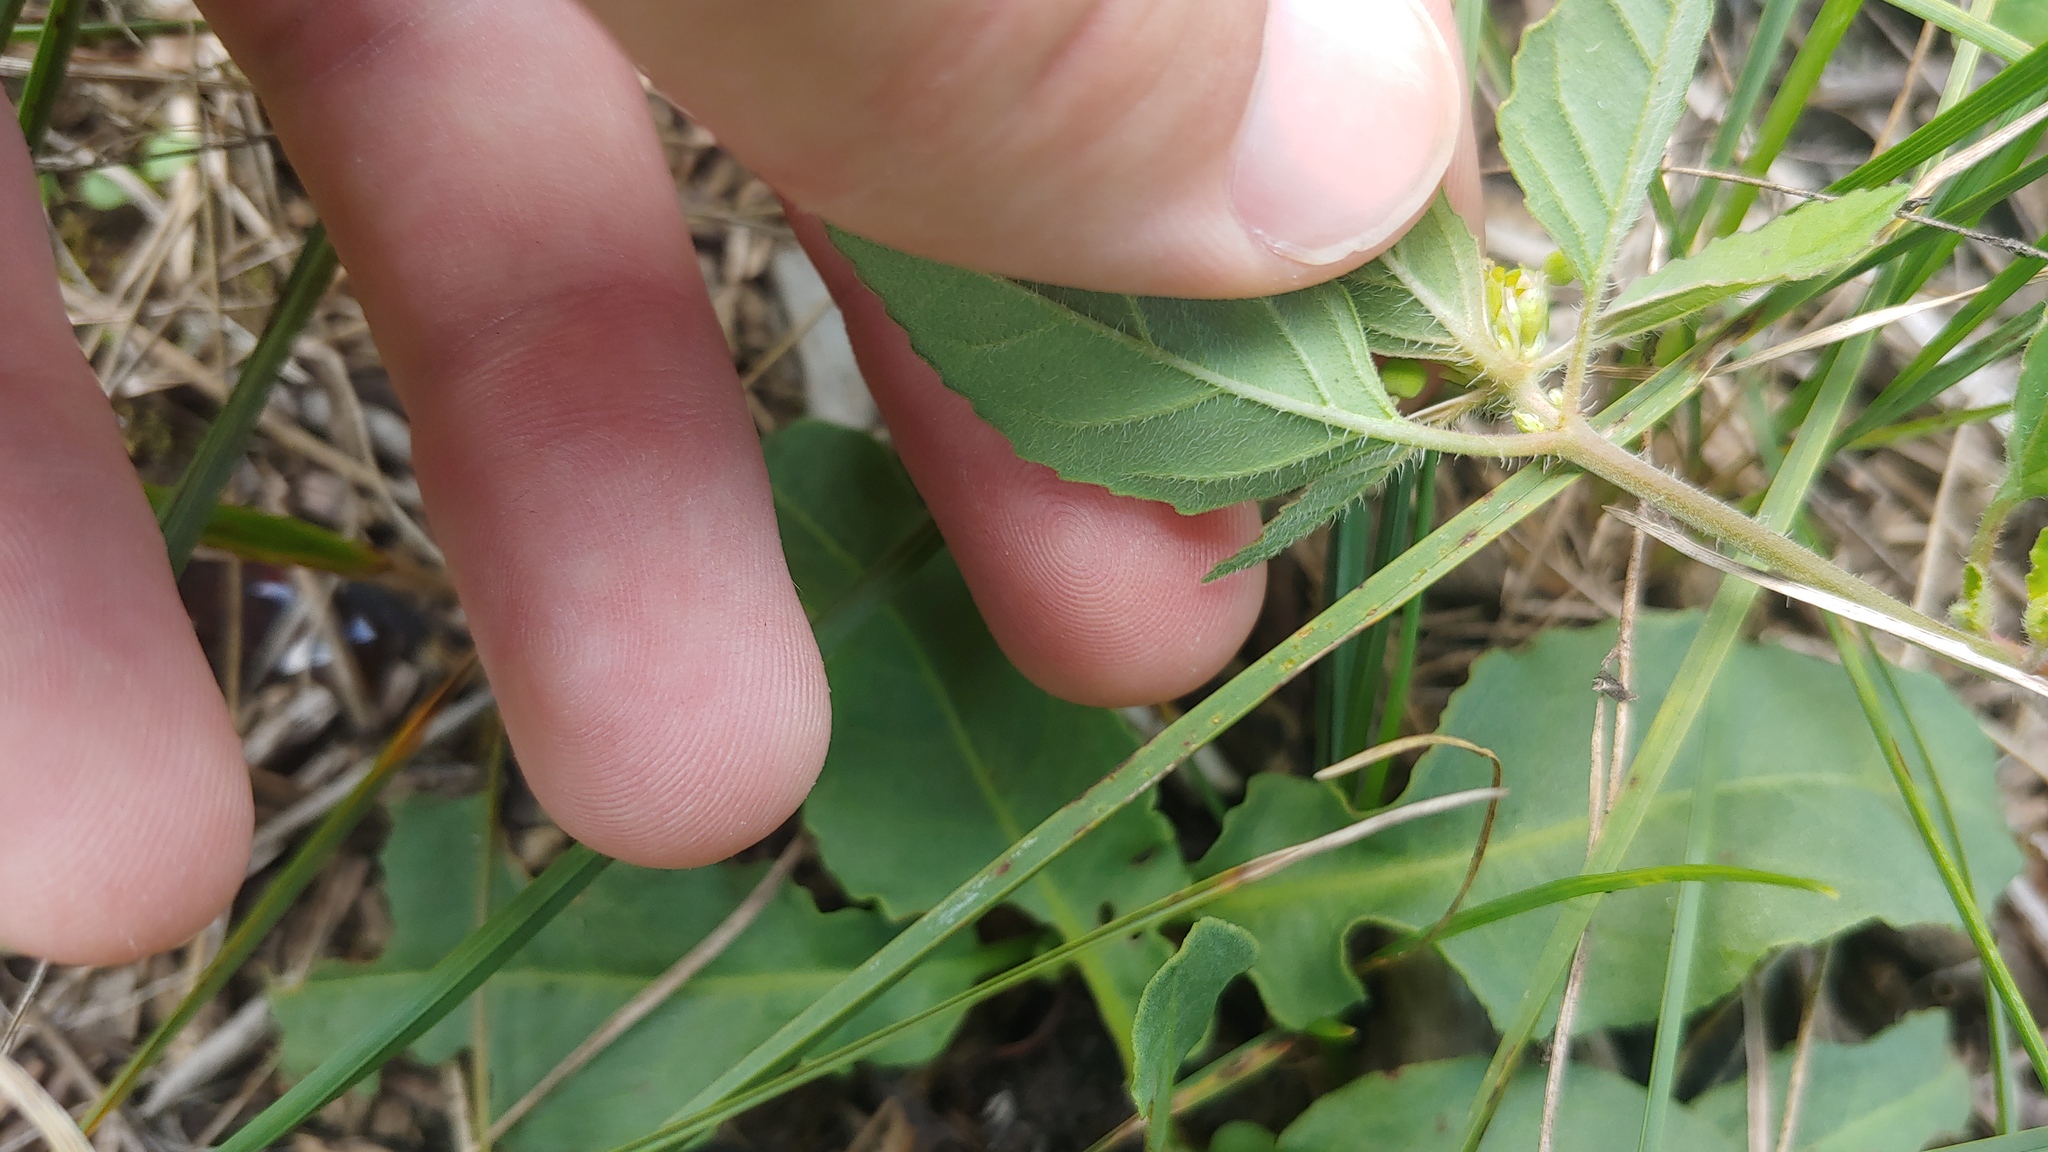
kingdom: Plantae
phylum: Tracheophyta
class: Magnoliopsida
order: Malpighiales
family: Euphorbiaceae
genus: Euphorbia
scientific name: Euphorbia dentata
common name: Dentate spurge
